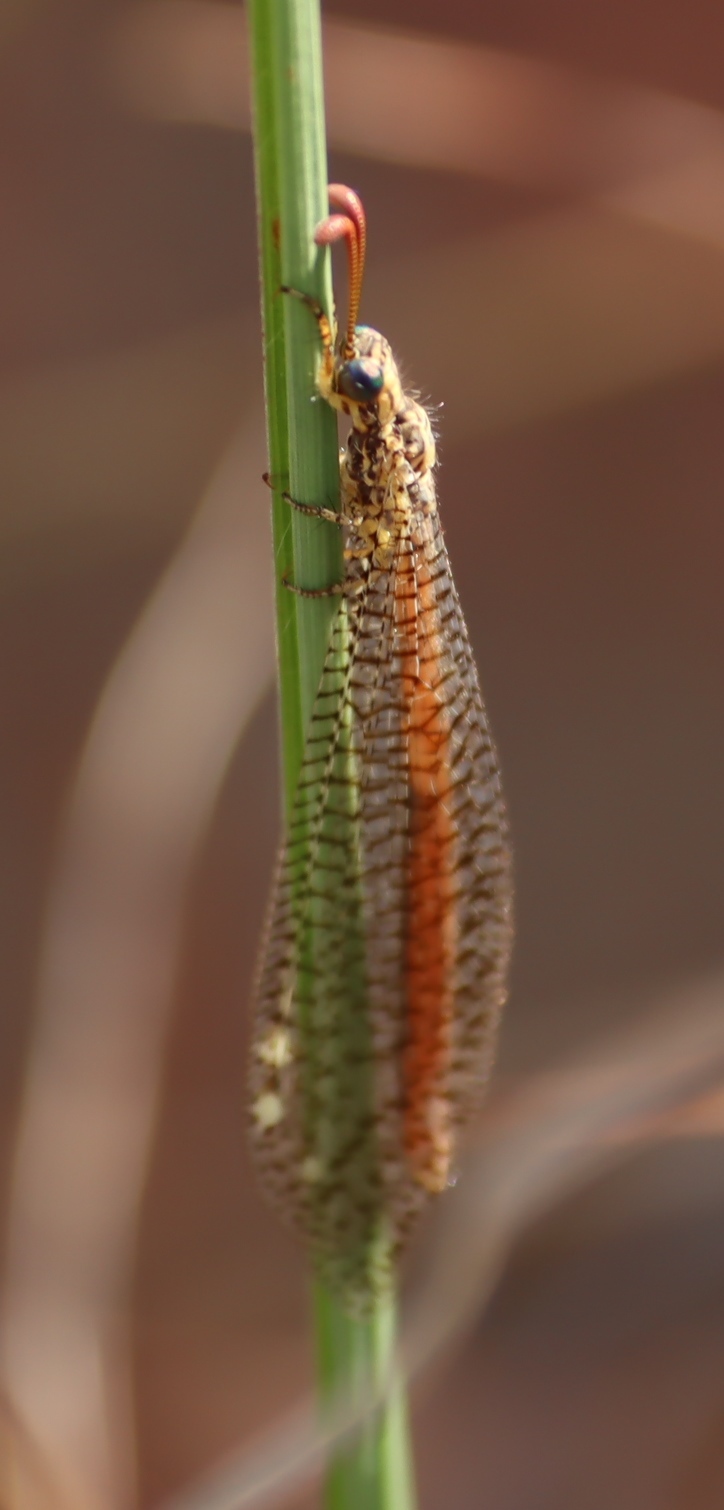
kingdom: Animalia
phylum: Arthropoda
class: Insecta
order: Neuroptera
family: Myrmeleontidae
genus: Palpares
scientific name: Palpares sobrinus
